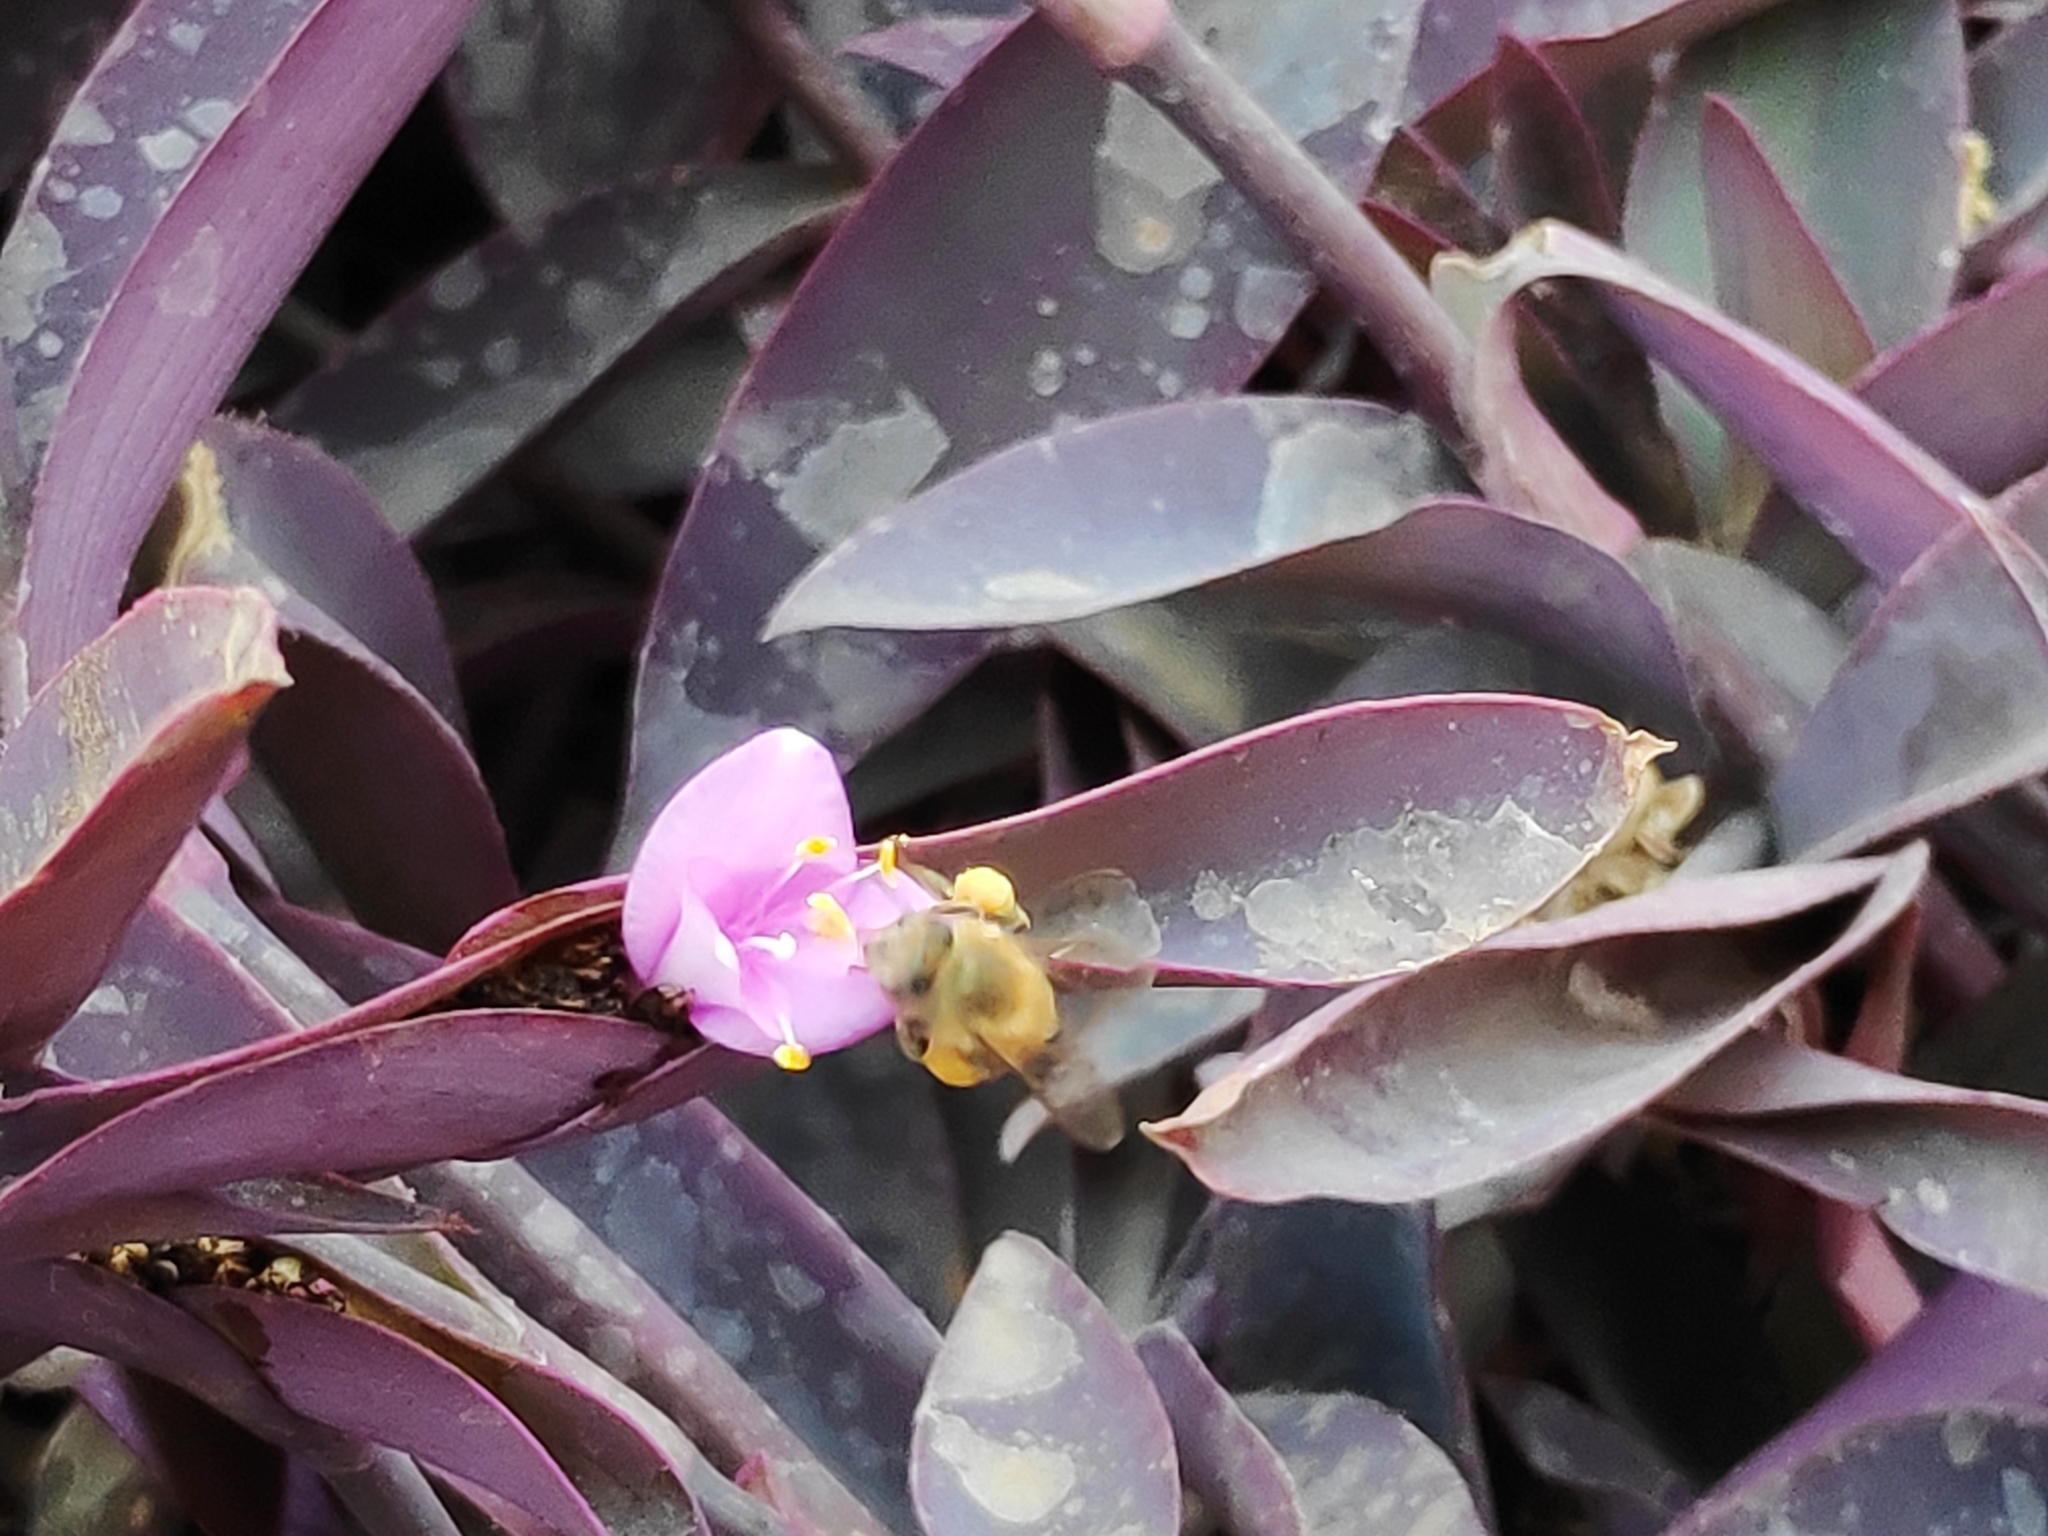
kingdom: Animalia
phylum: Arthropoda
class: Insecta
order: Hymenoptera
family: Apidae
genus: Apis
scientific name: Apis mellifera
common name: Honey bee
